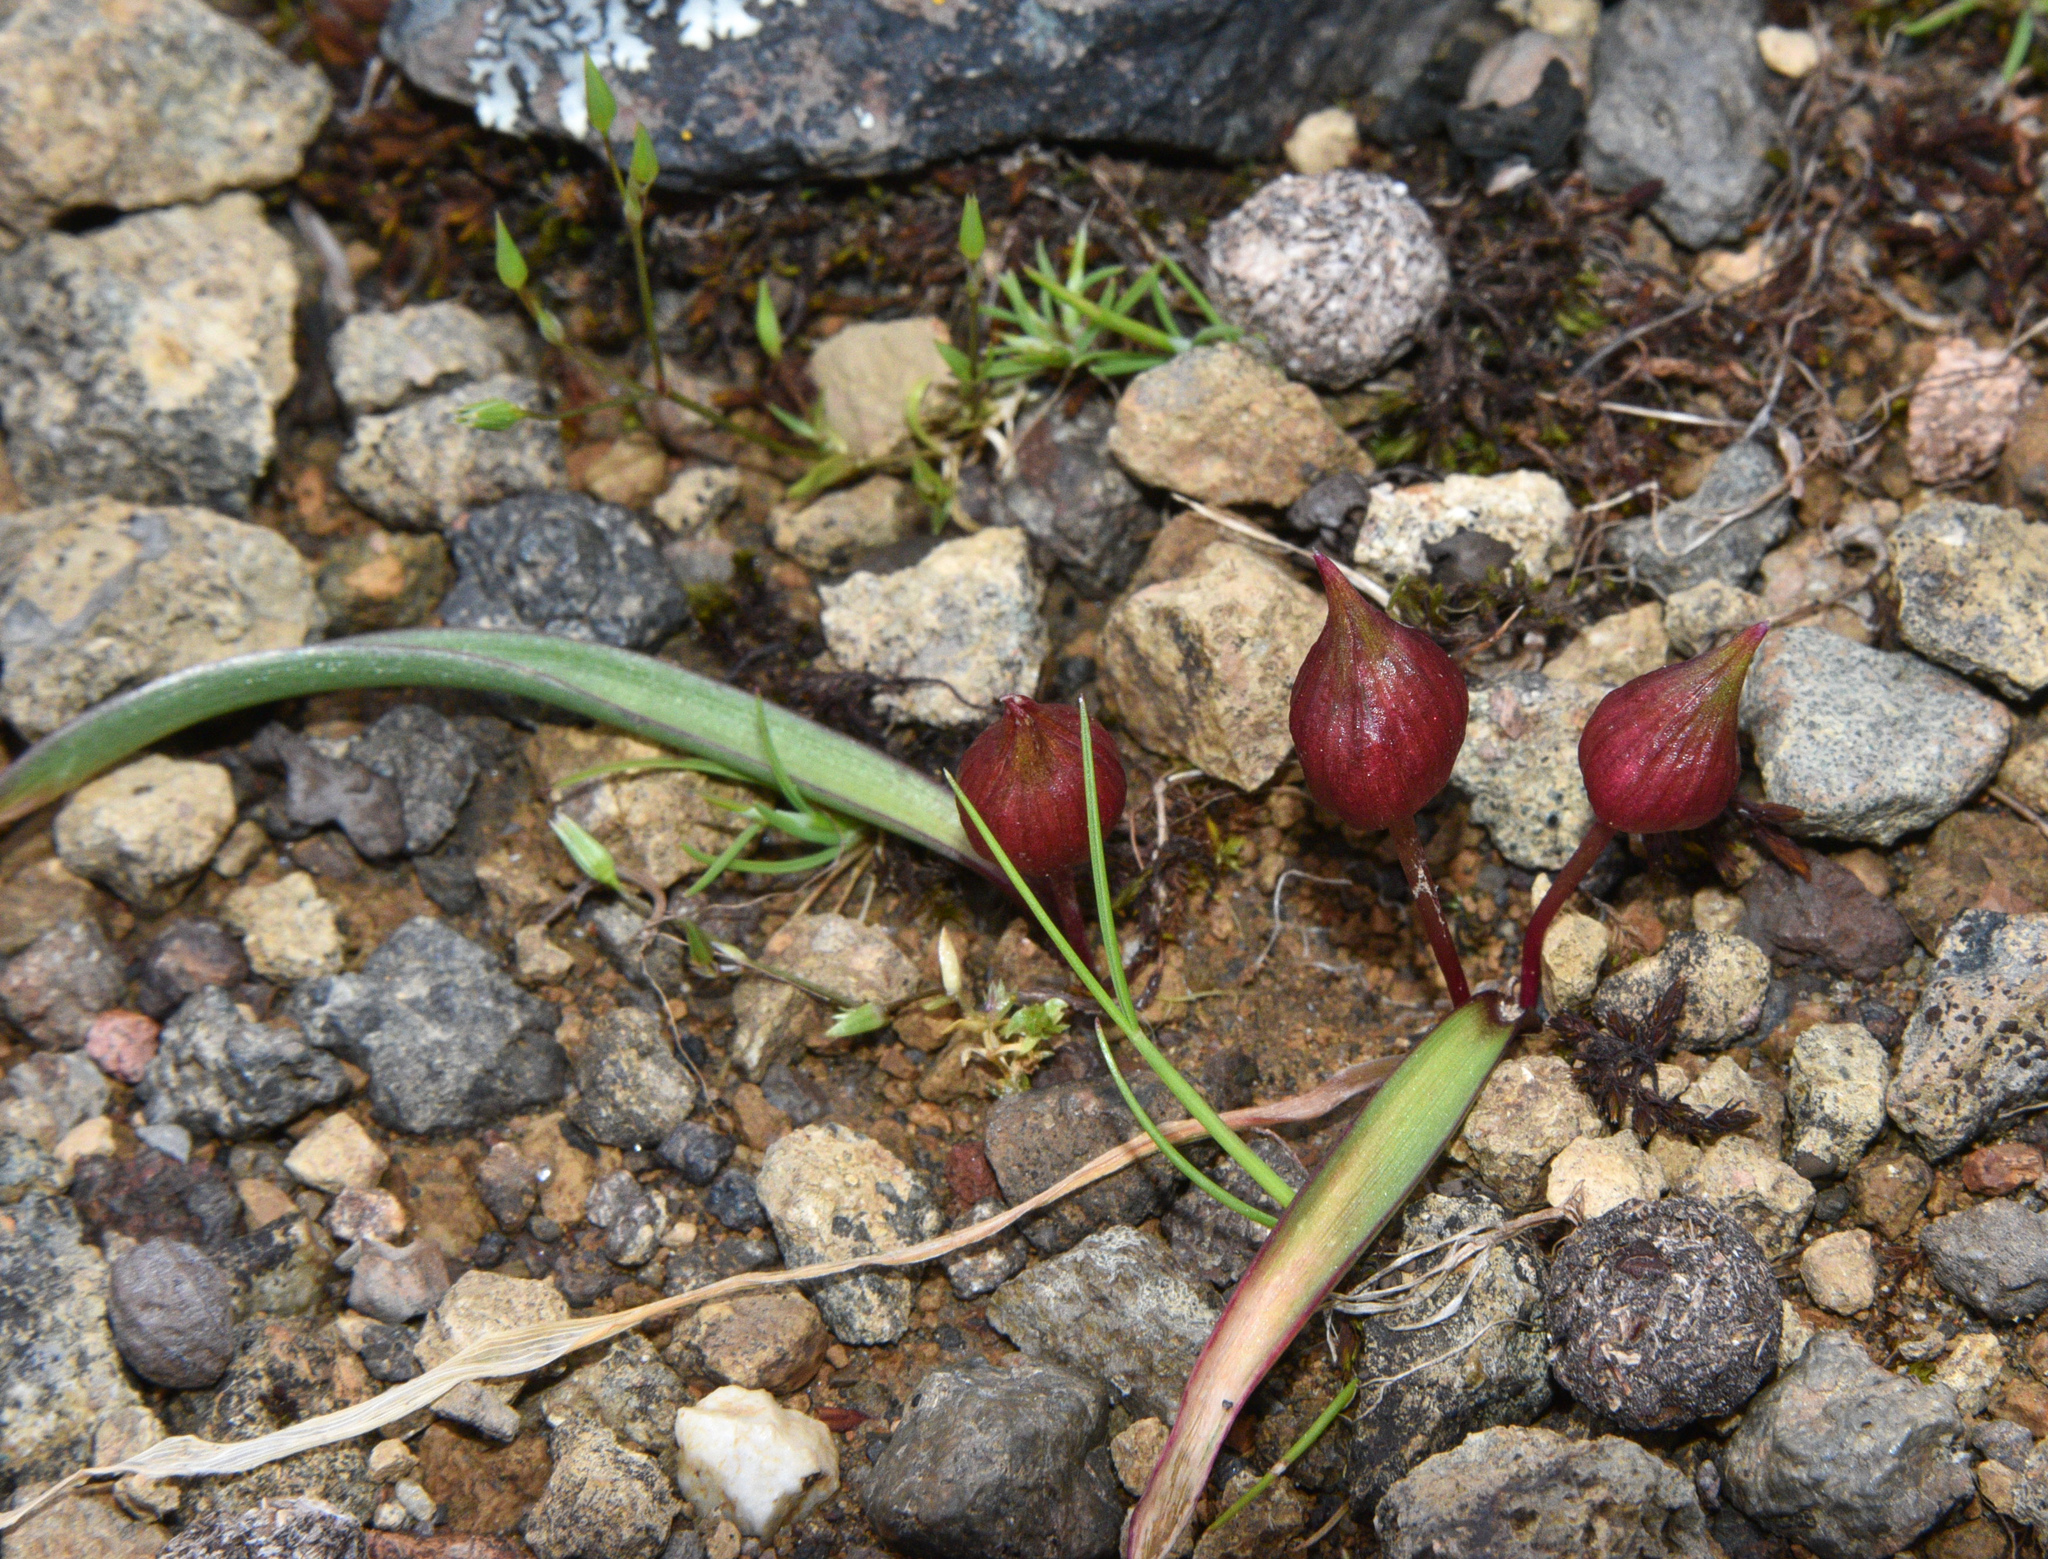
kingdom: Plantae
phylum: Tracheophyta
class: Liliopsida
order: Asparagales
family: Amaryllidaceae
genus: Allium
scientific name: Allium cratericola
